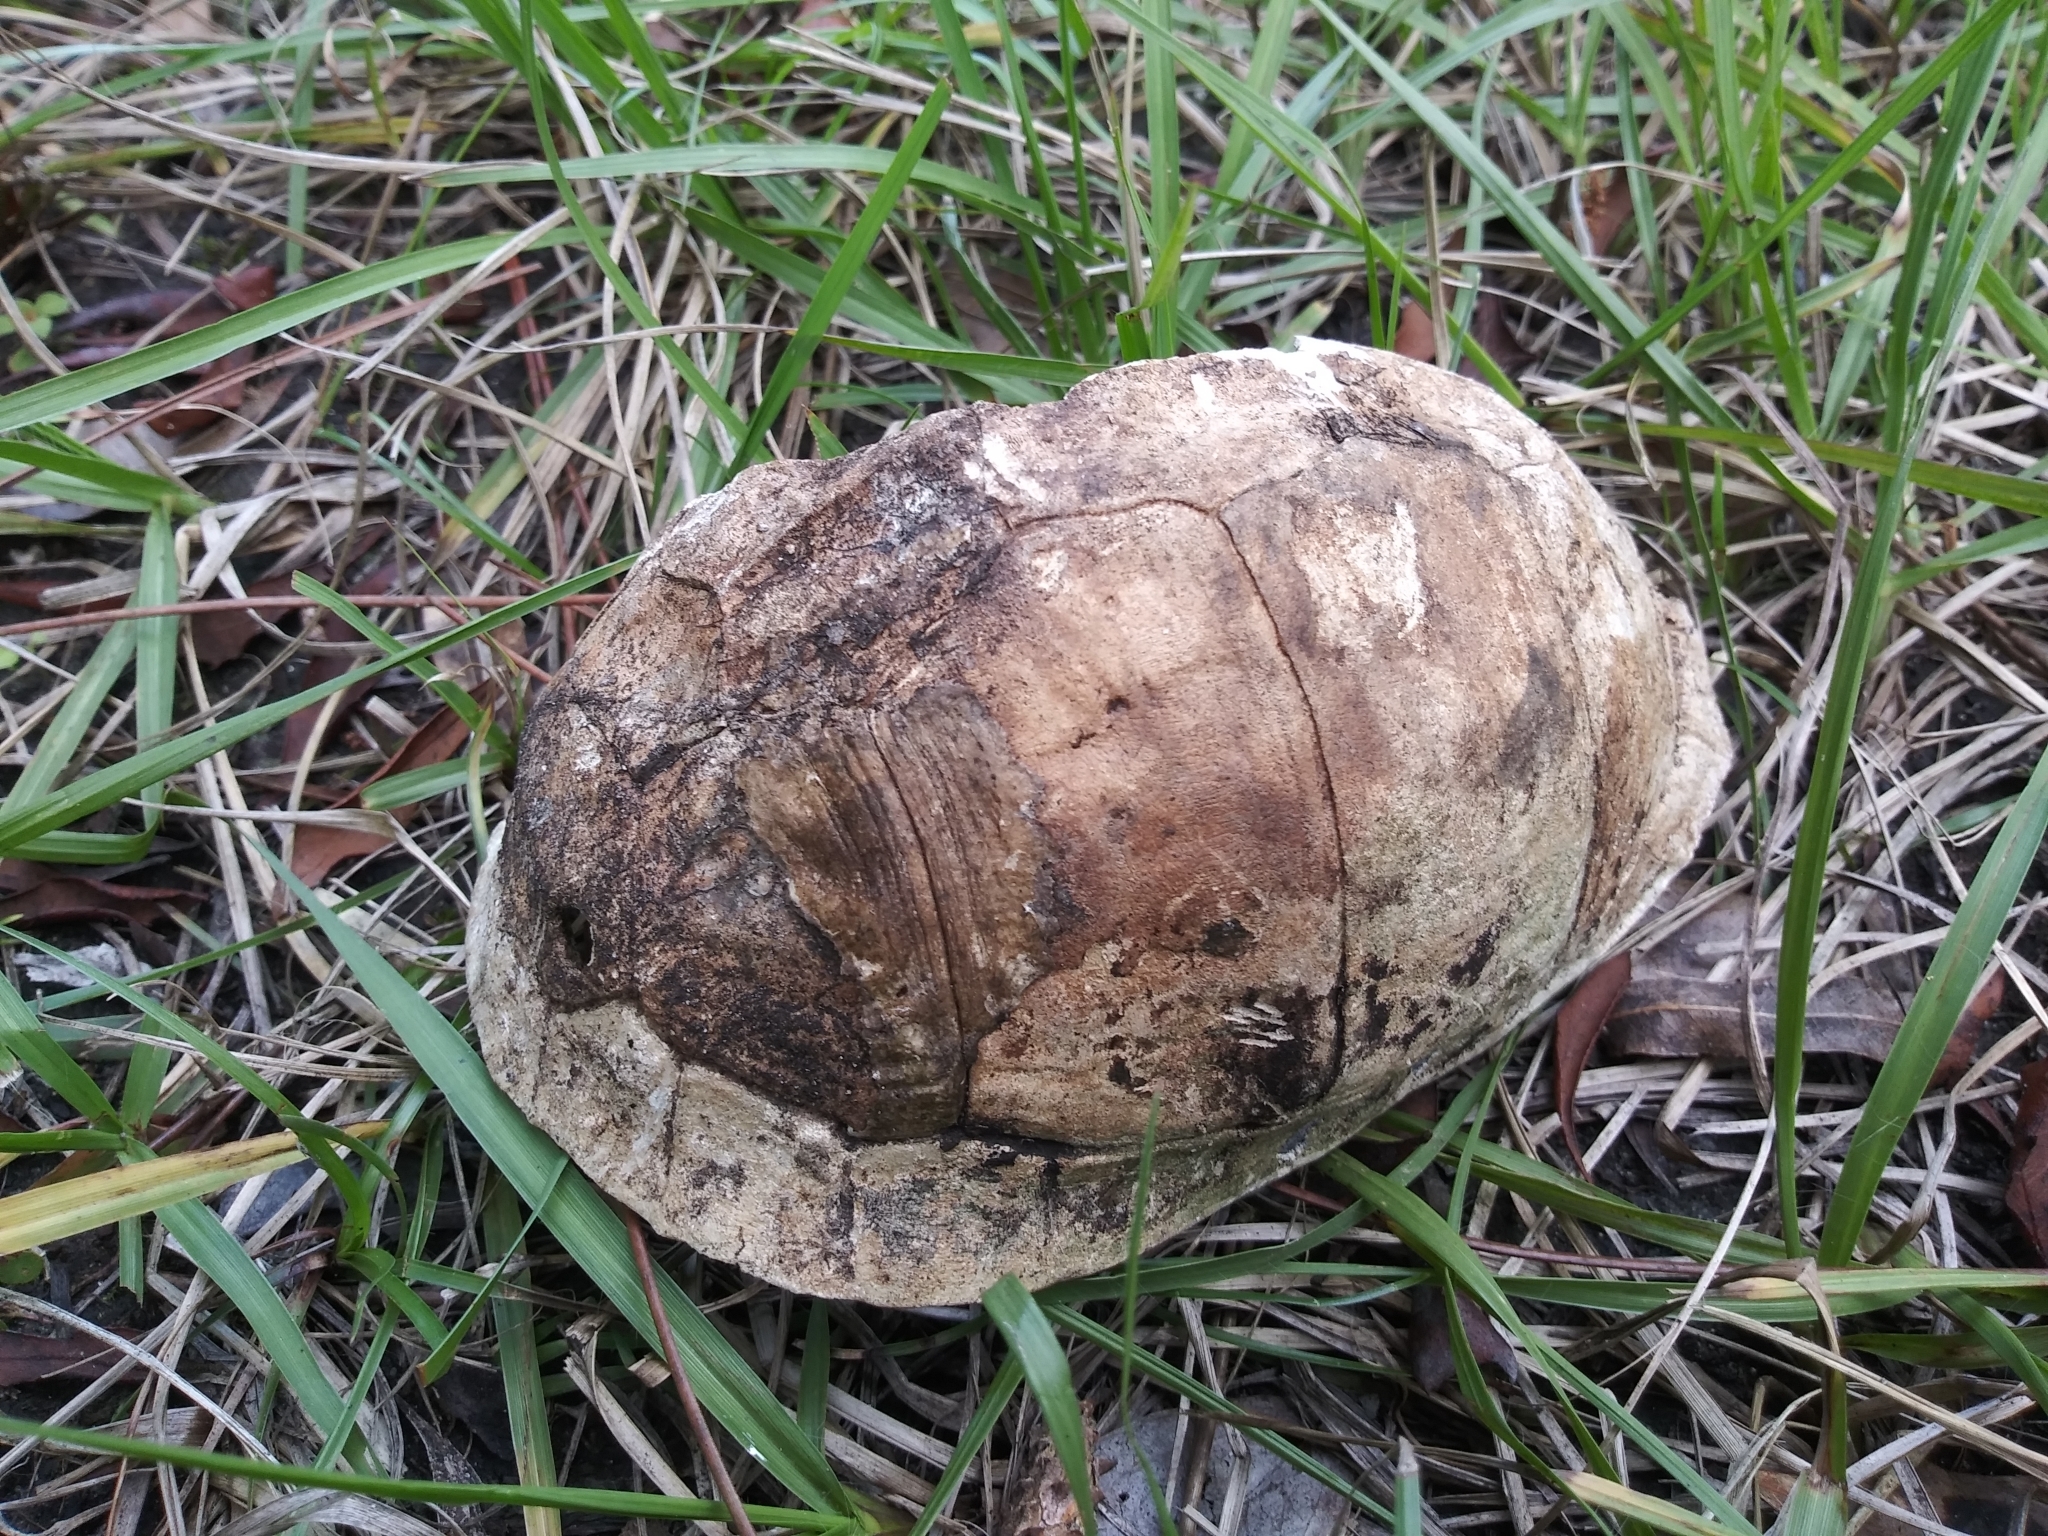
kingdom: Animalia
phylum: Chordata
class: Testudines
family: Emydidae
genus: Terrapene
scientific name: Terrapene carolina
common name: Common box turtle
